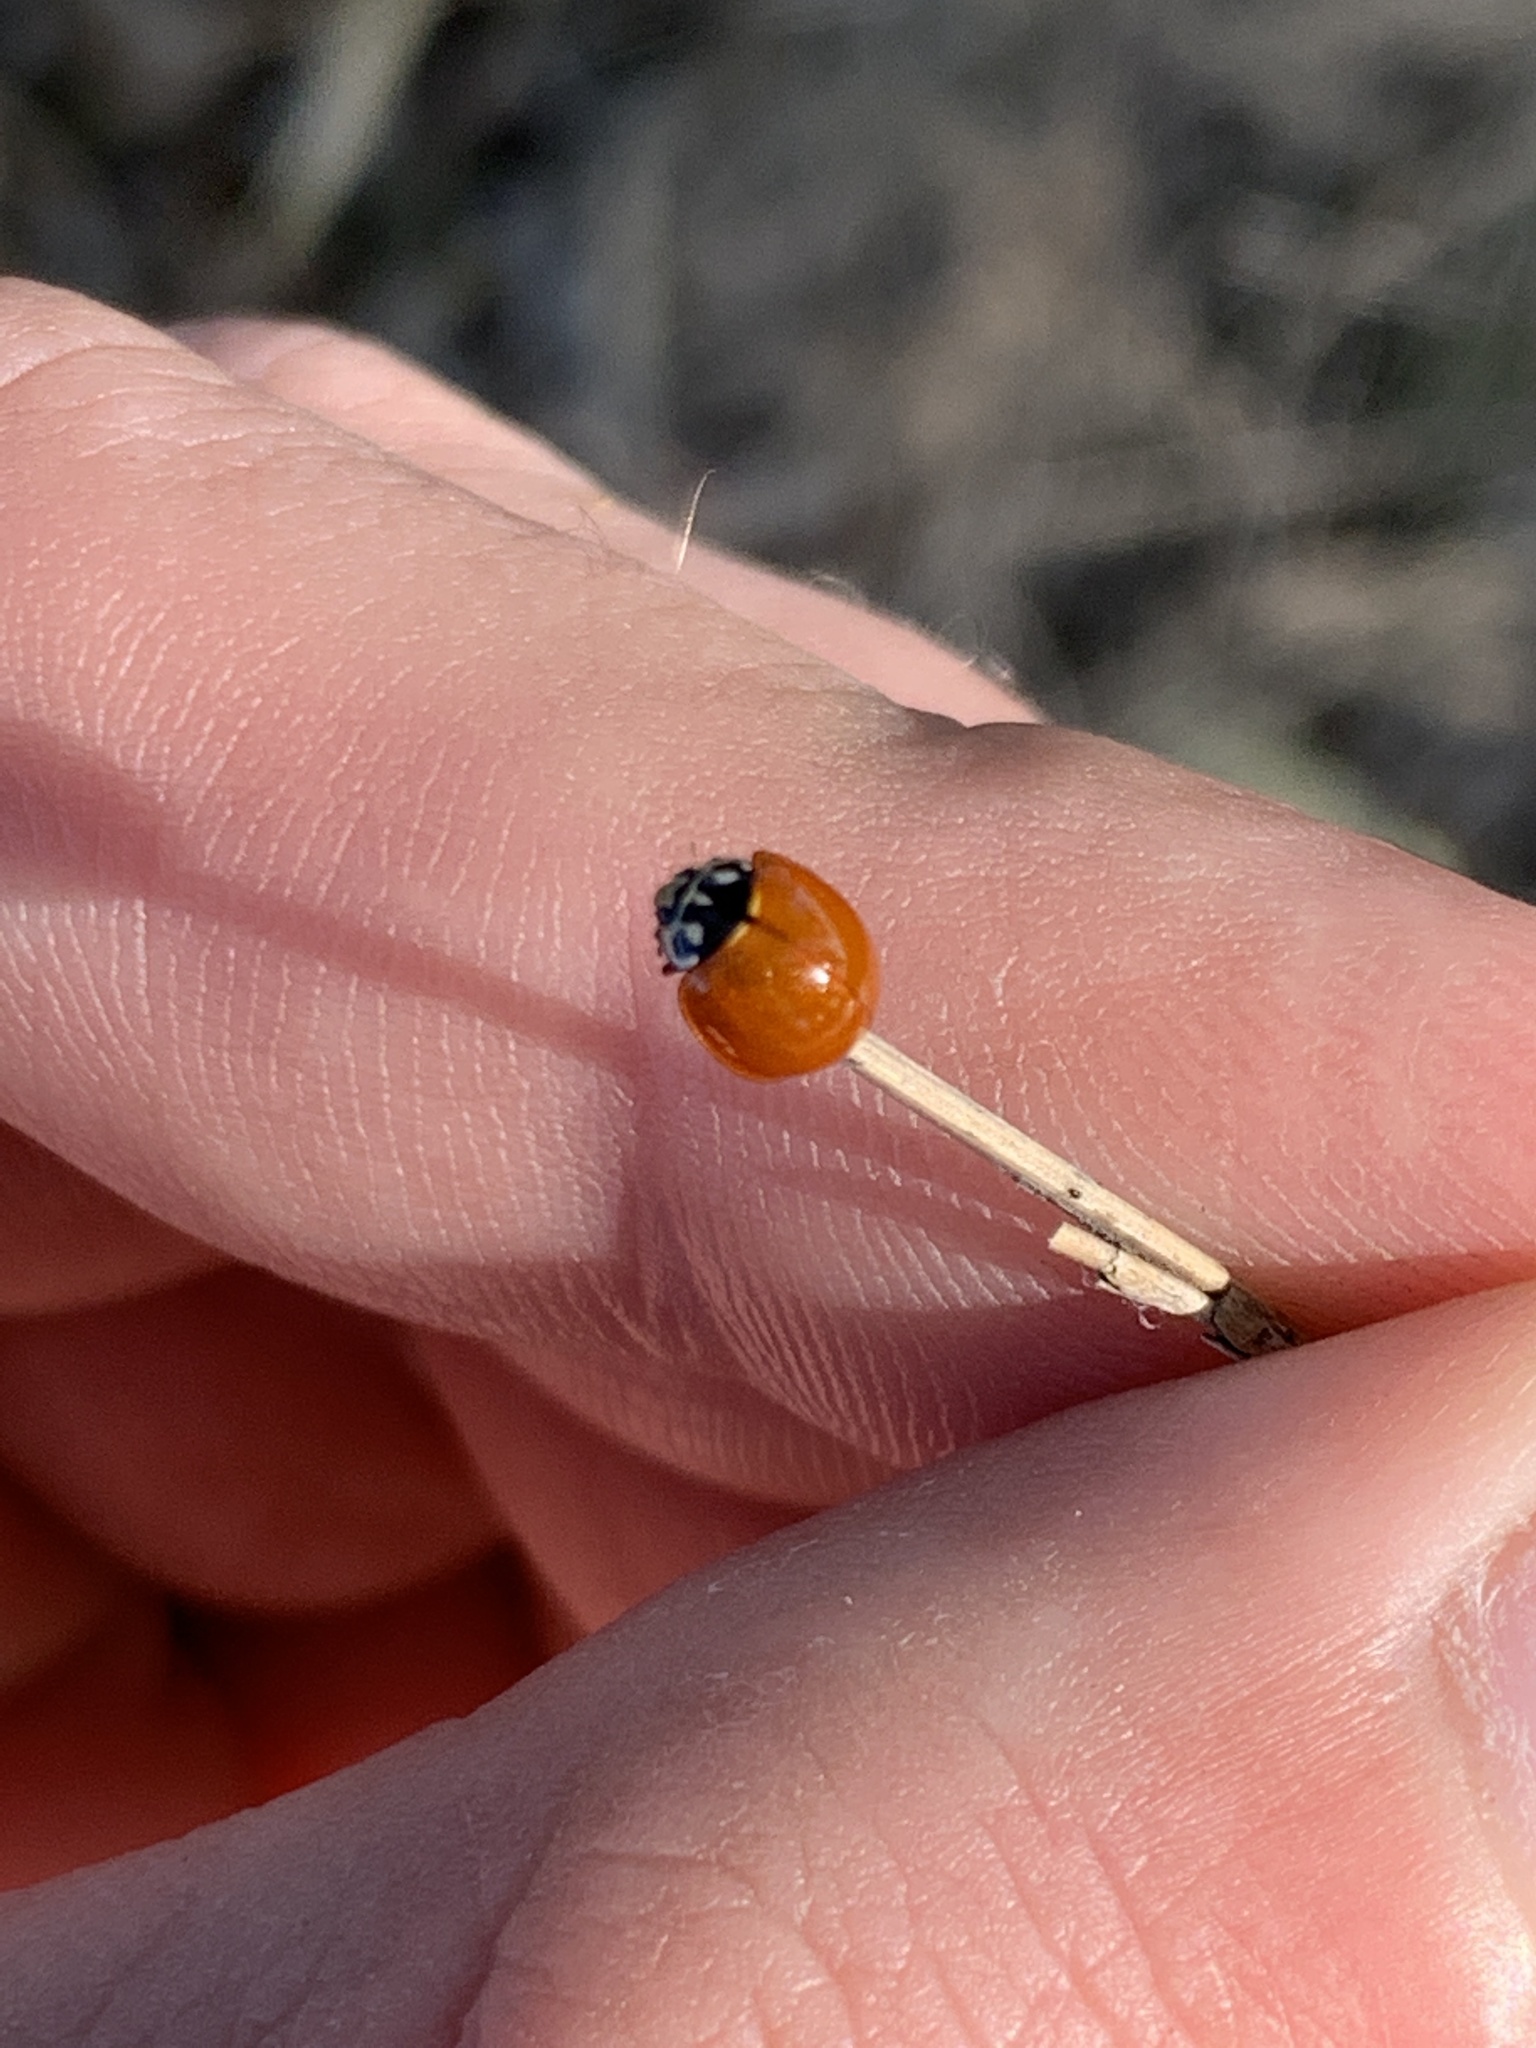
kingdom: Animalia
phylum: Arthropoda
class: Insecta
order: Coleoptera
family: Coccinellidae
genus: Cycloneda
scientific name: Cycloneda sanguinea
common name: Ladybird beetle
